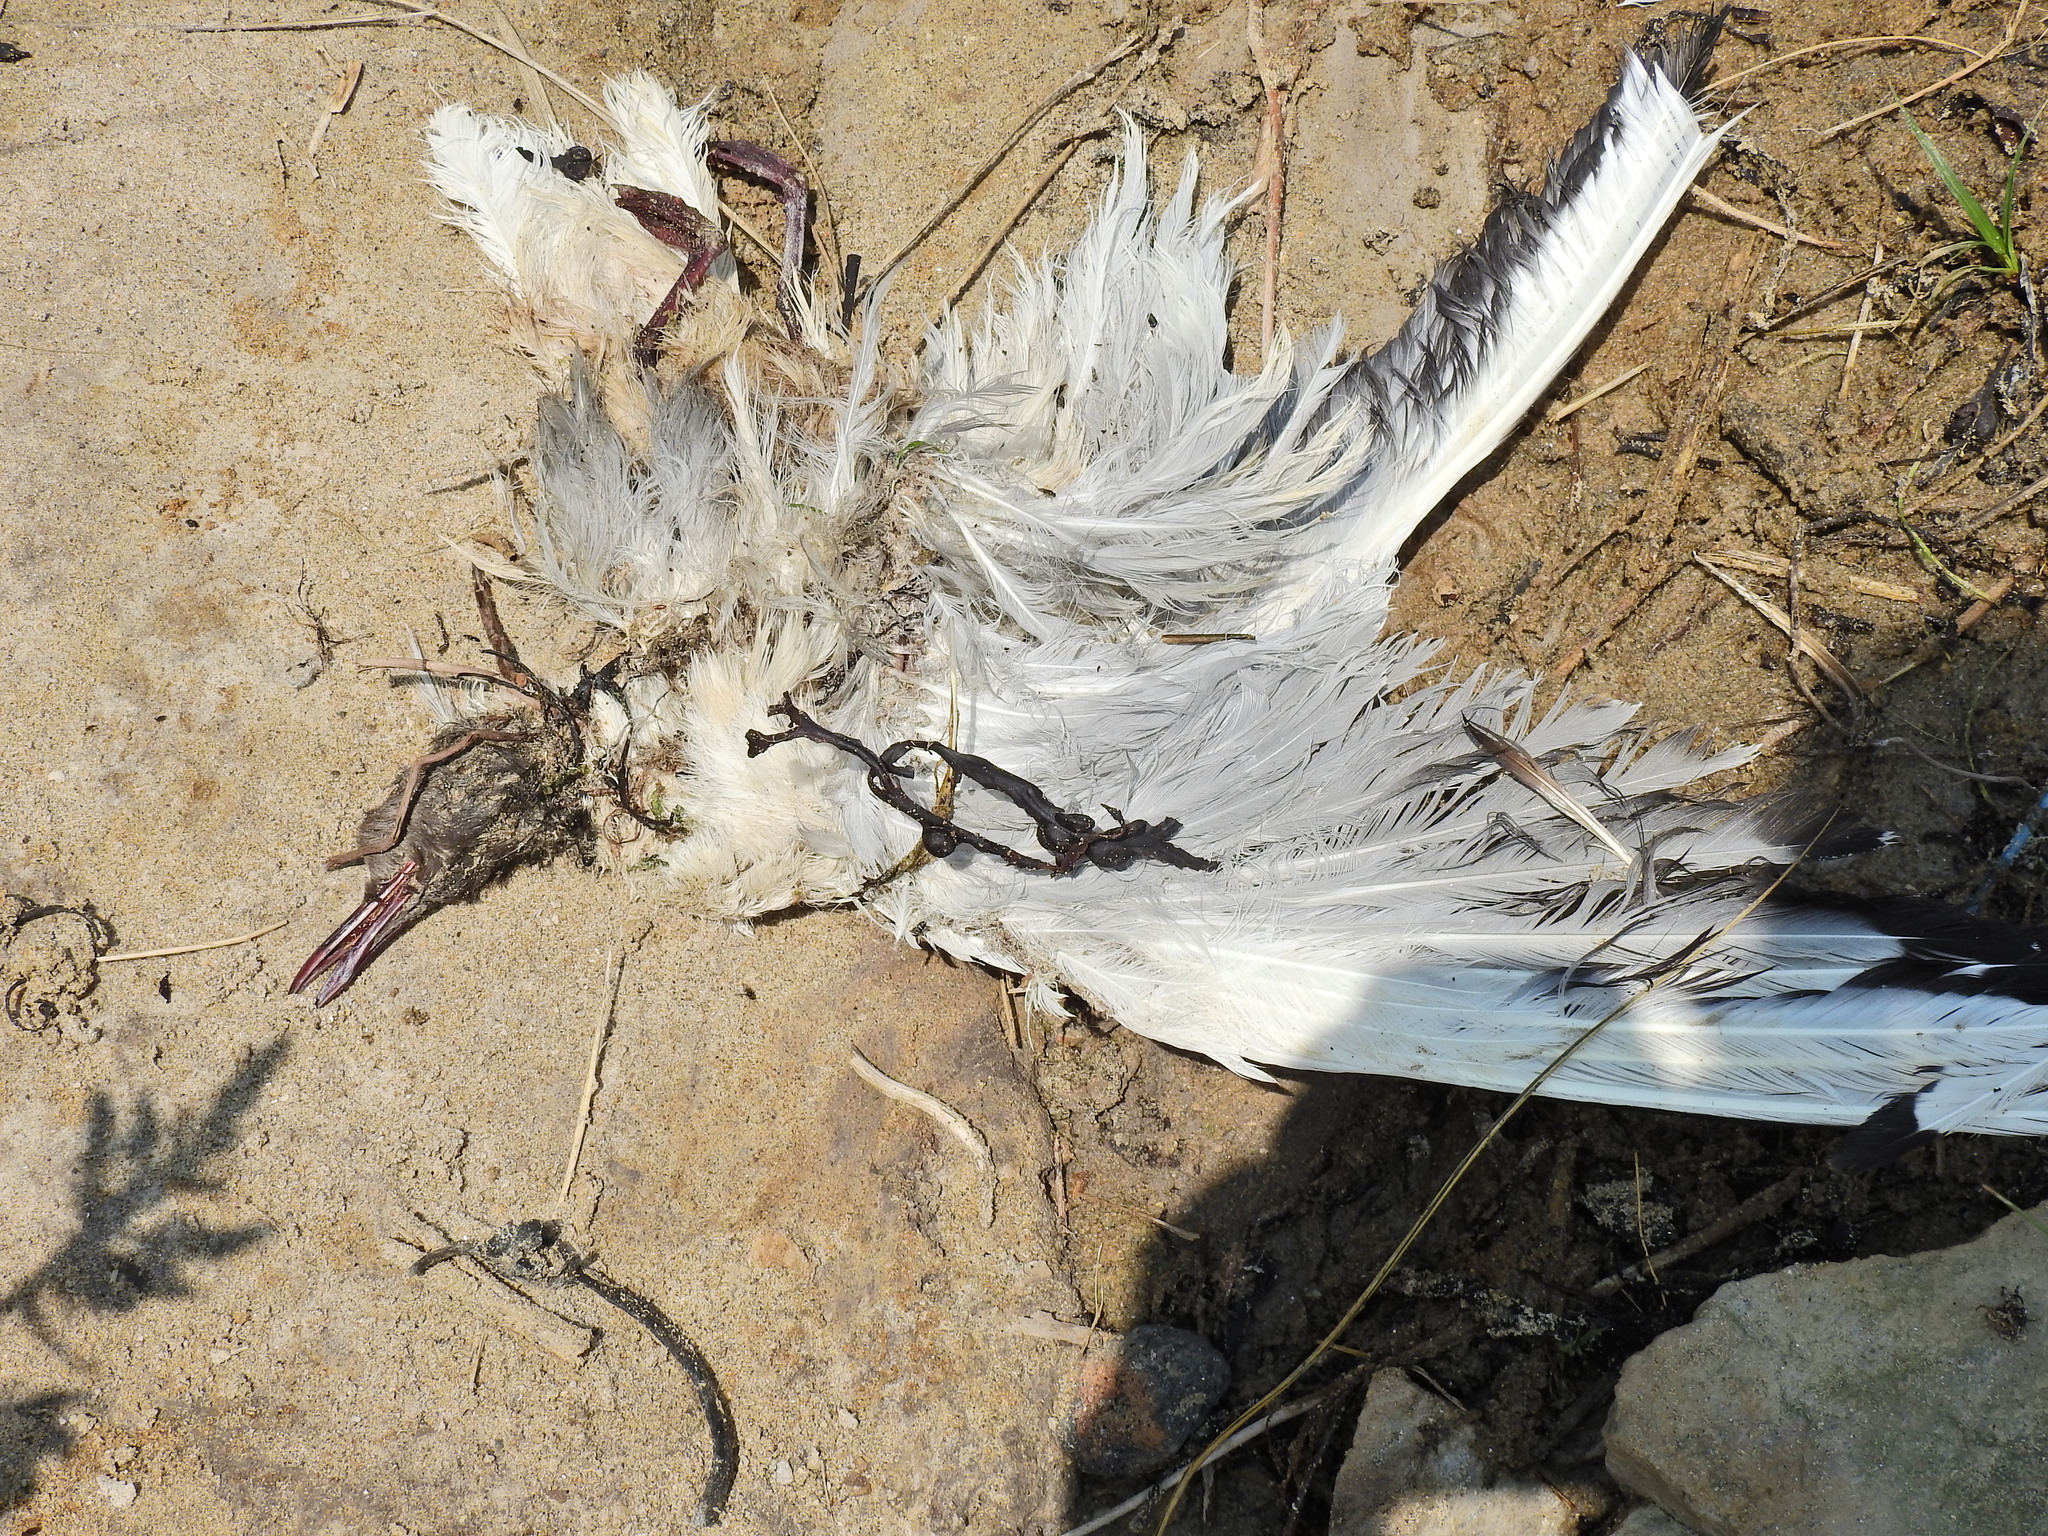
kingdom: Animalia
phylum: Chordata
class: Aves
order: Charadriiformes
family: Laridae
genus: Chroicocephalus
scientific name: Chroicocephalus ridibundus
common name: Black-headed gull
